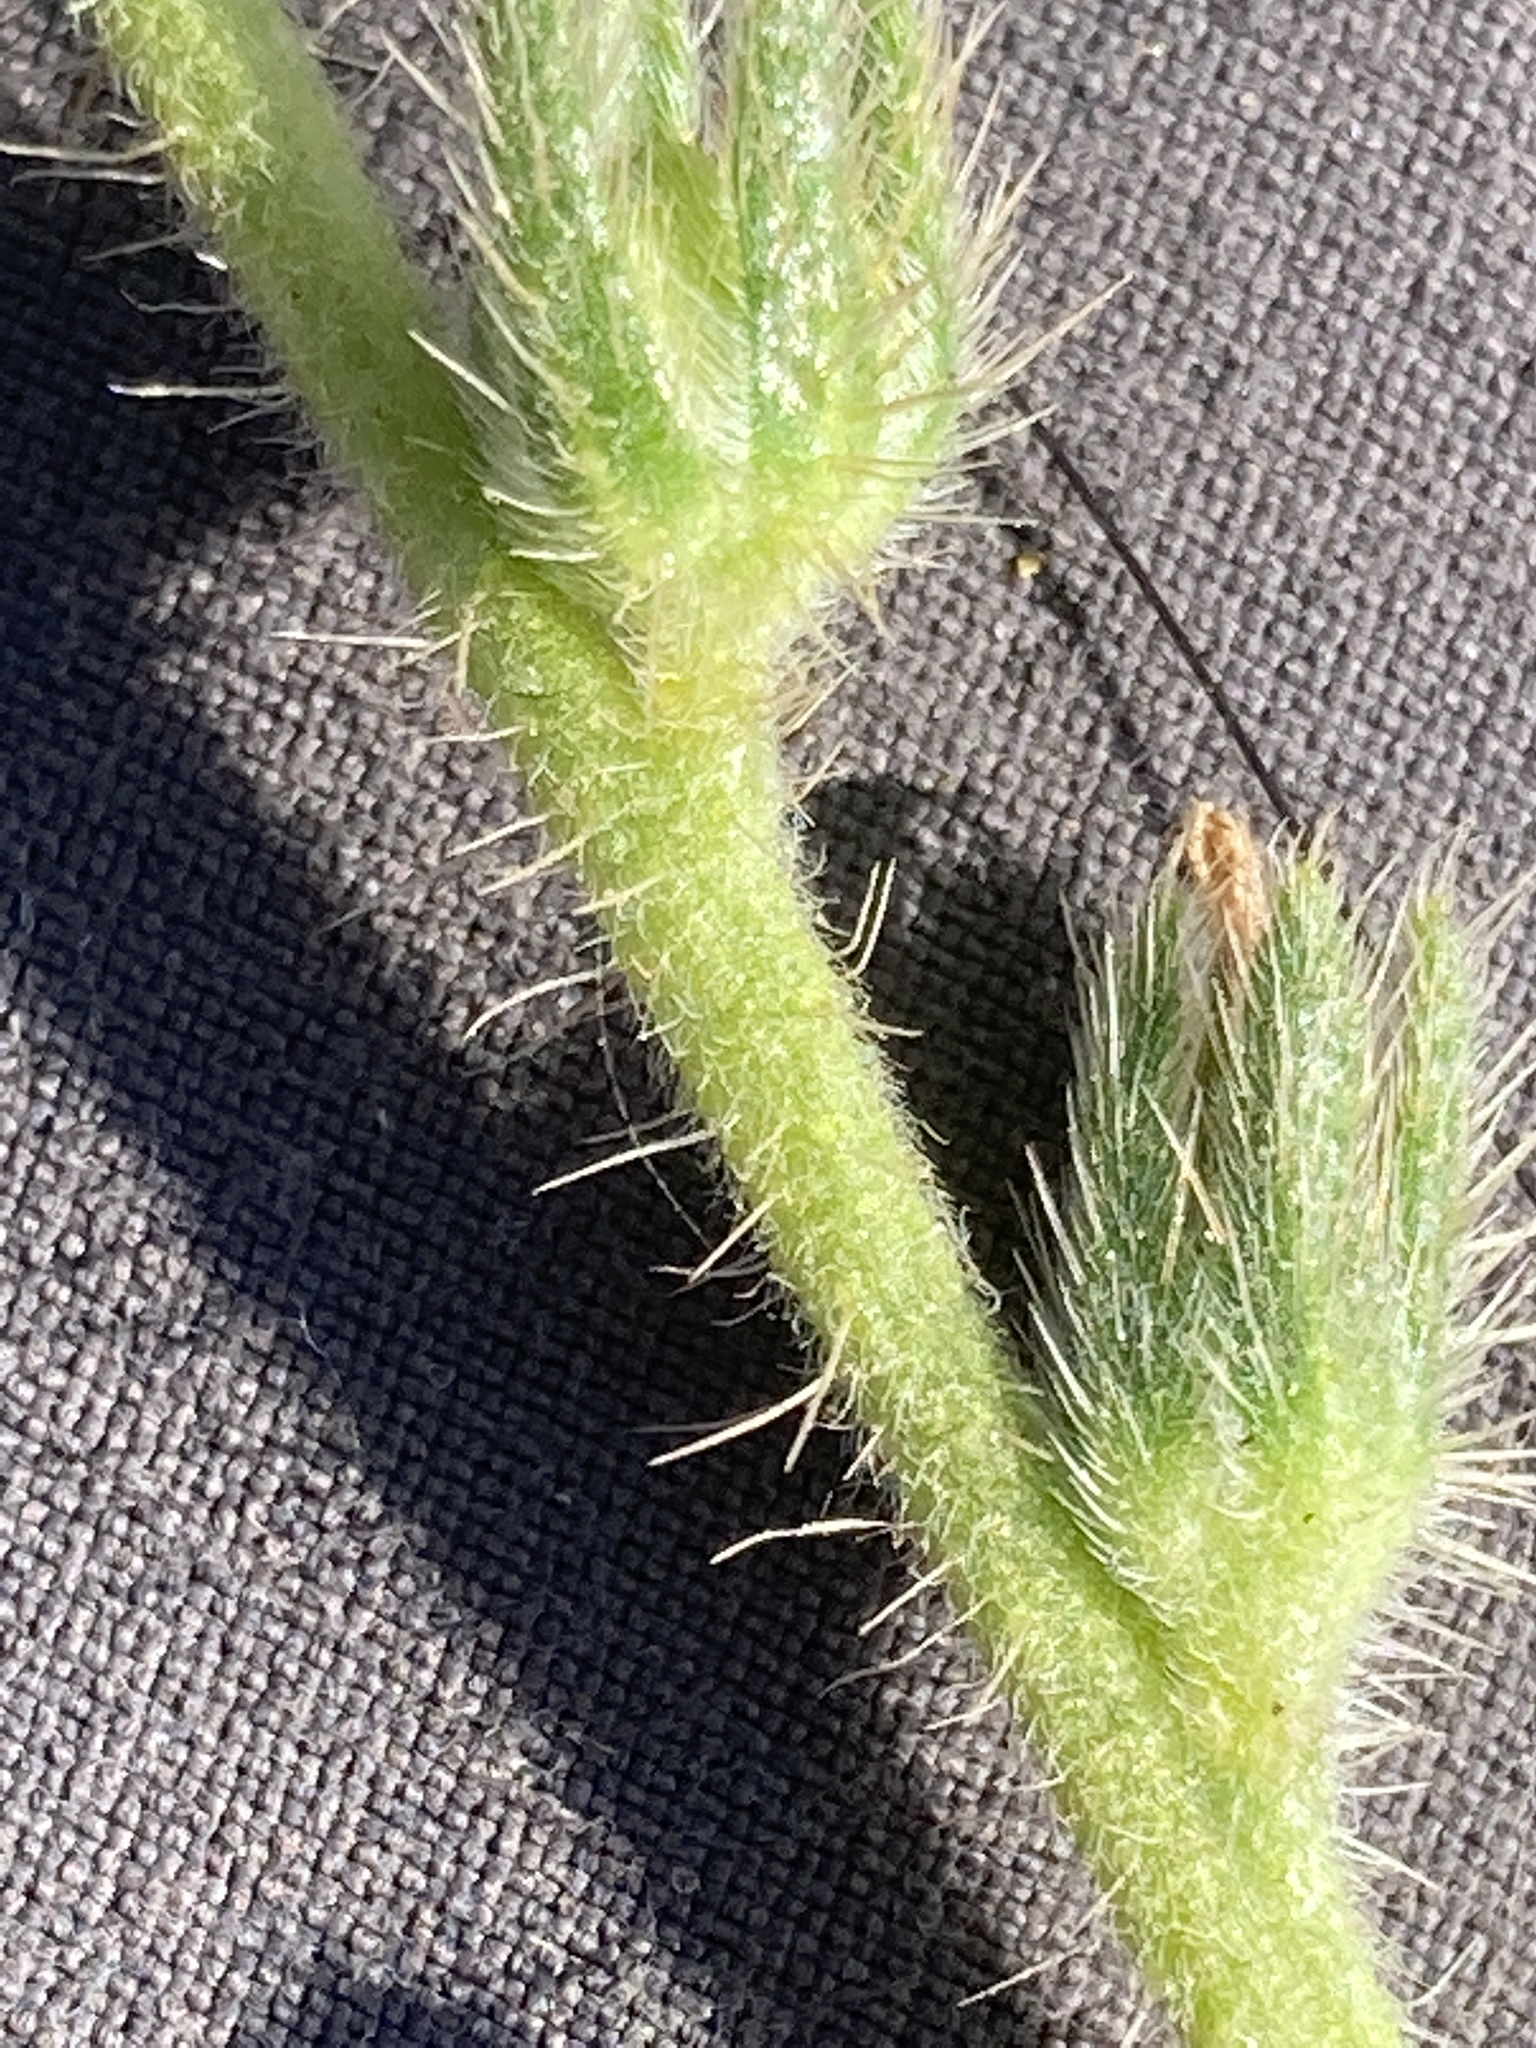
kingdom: Plantae
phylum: Tracheophyta
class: Magnoliopsida
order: Boraginales
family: Boraginaceae
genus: Amsinckia
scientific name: Amsinckia menziesii
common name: Menzies' fiddleneck
